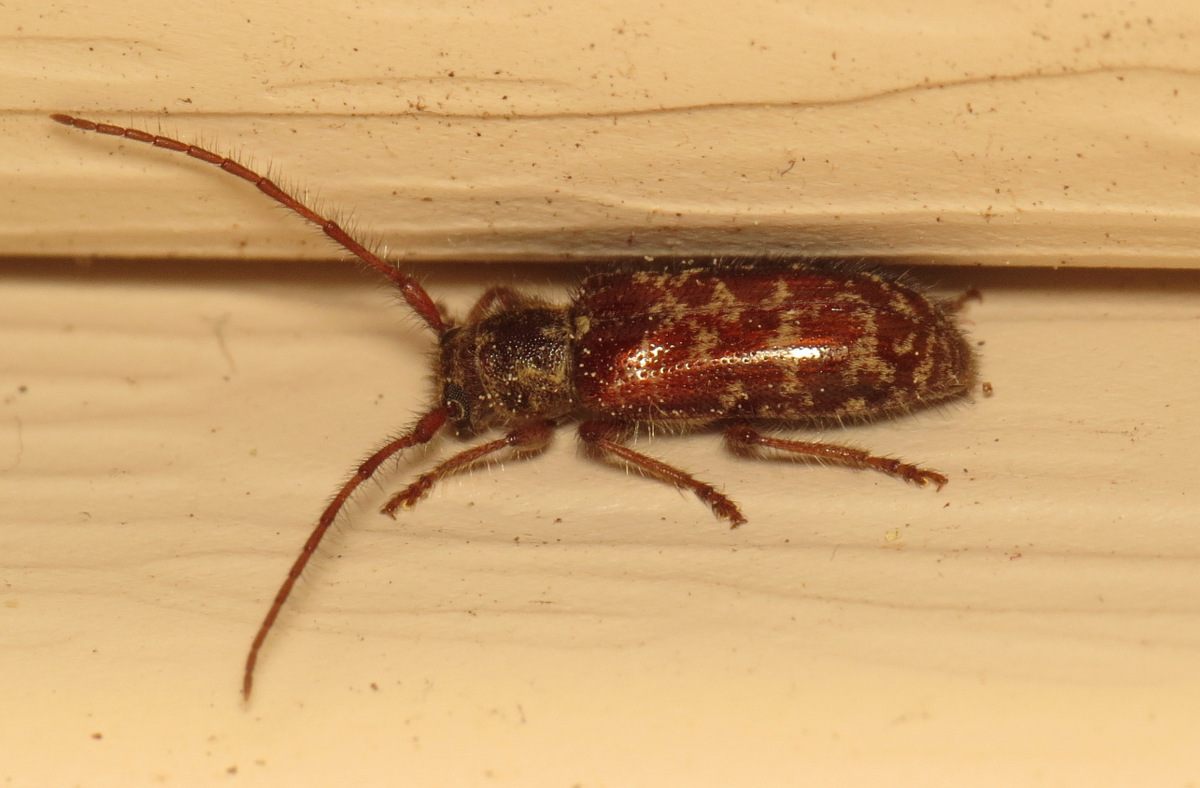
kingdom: Animalia
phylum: Arthropoda
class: Insecta
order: Coleoptera
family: Cerambycidae
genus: Eupogonius
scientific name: Eupogonius tomentosus
